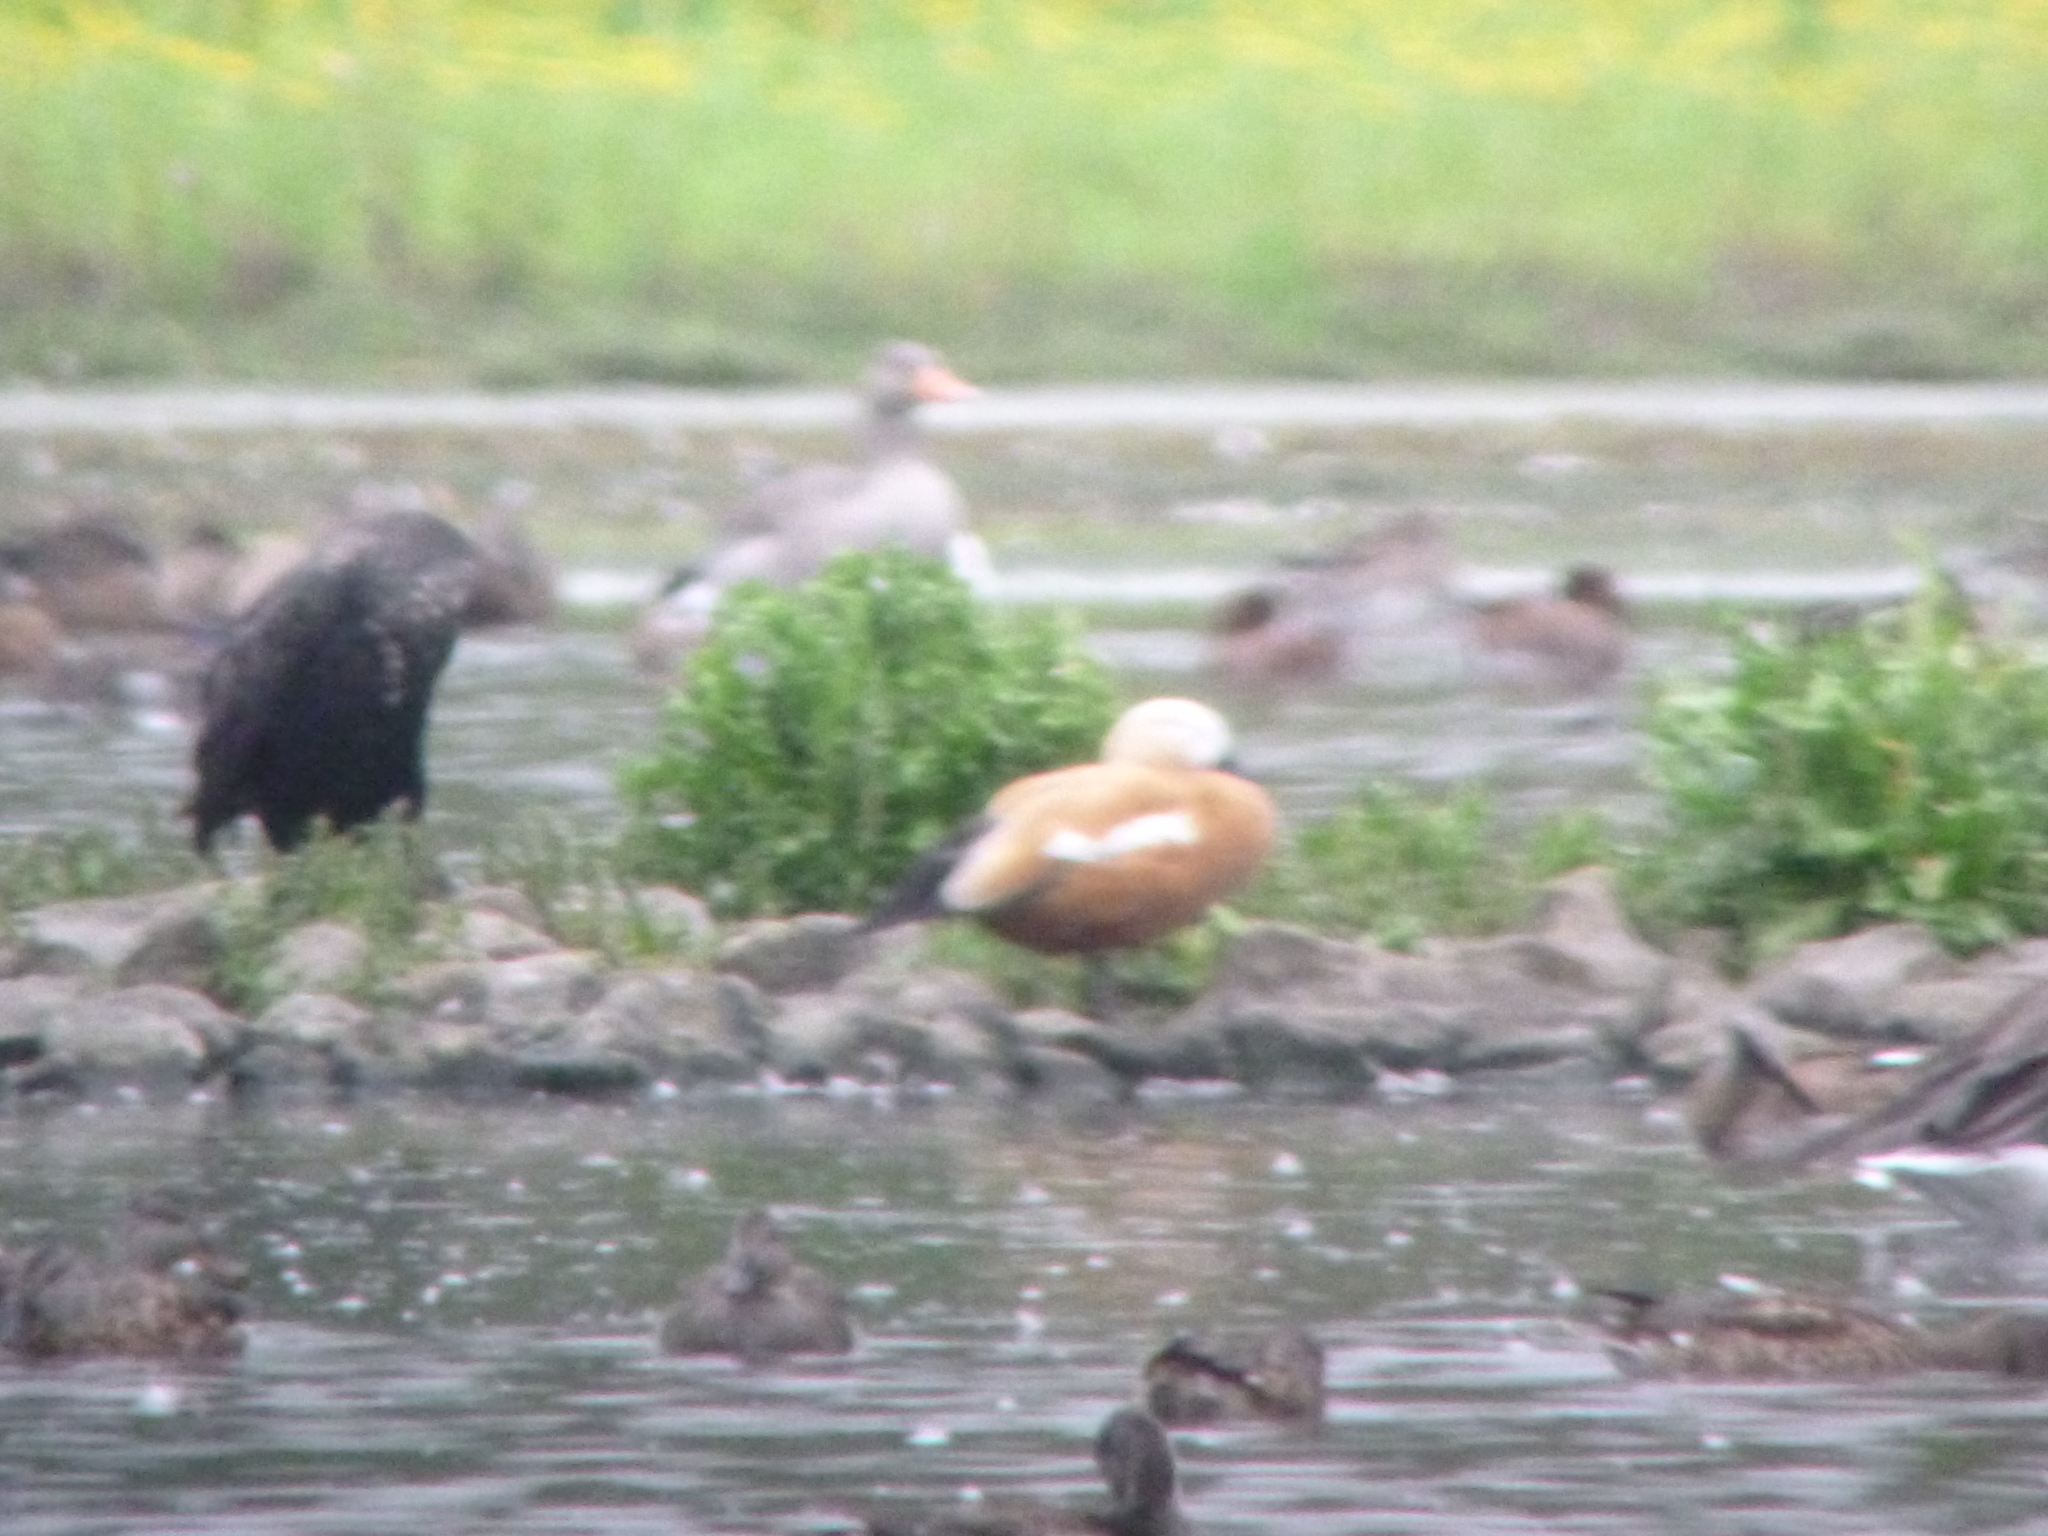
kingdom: Animalia
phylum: Chordata
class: Aves
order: Anseriformes
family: Anatidae
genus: Tadorna
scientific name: Tadorna ferruginea
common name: Ruddy shelduck
